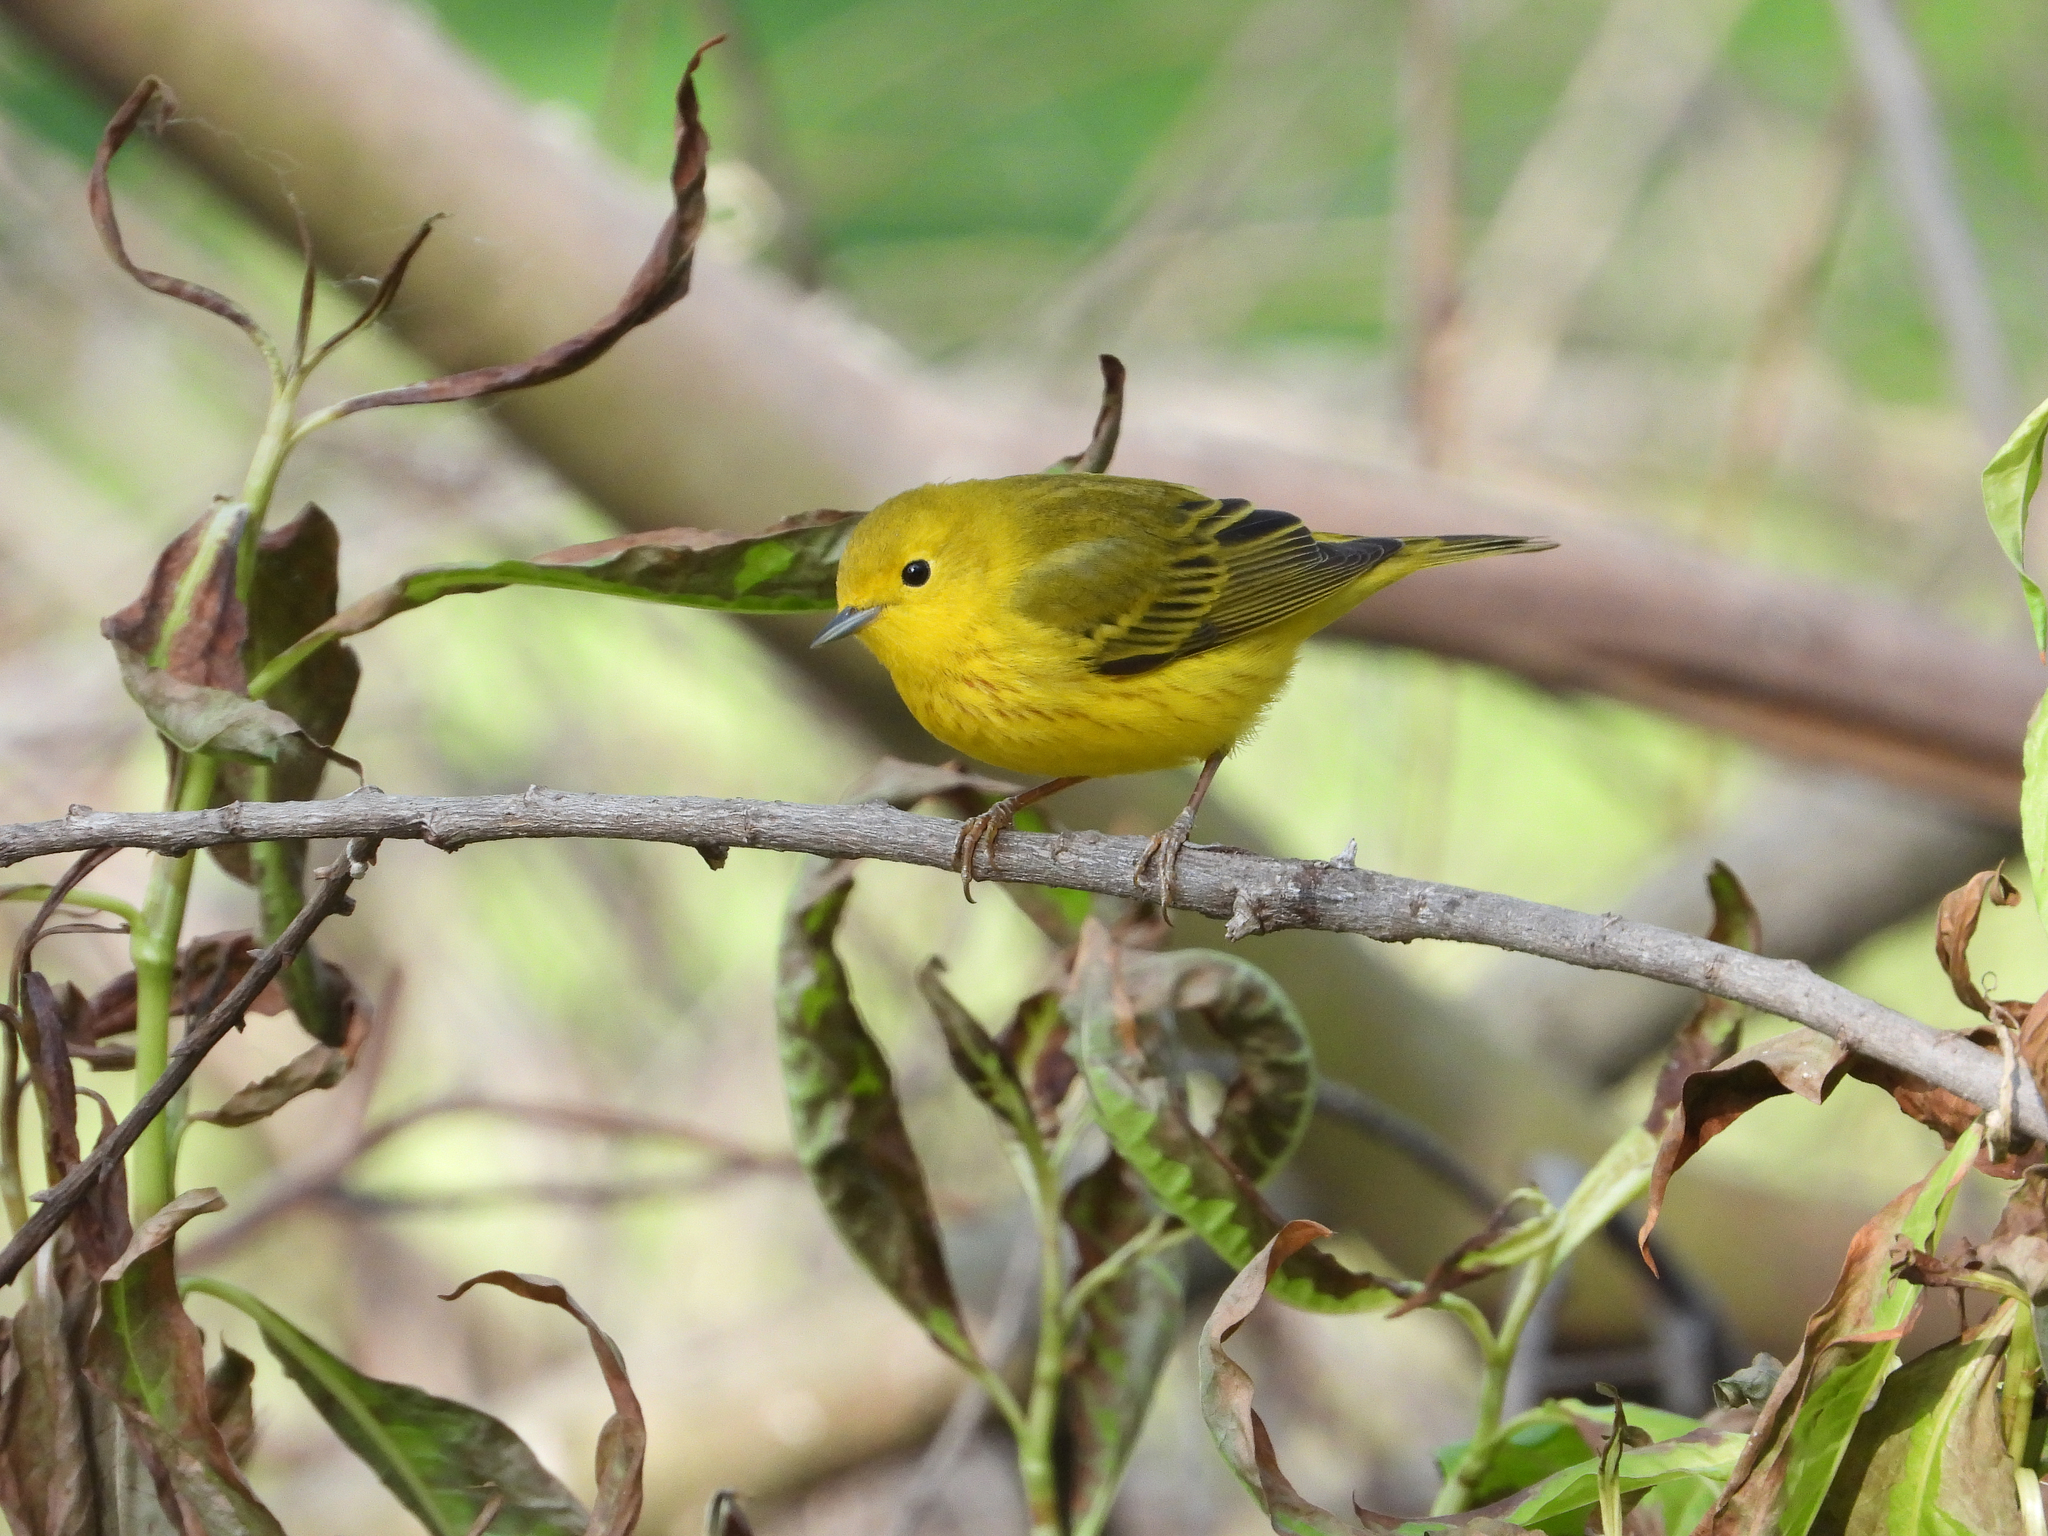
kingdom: Animalia
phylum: Chordata
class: Aves
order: Passeriformes
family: Parulidae
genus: Setophaga
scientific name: Setophaga petechia
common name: Yellow warbler
